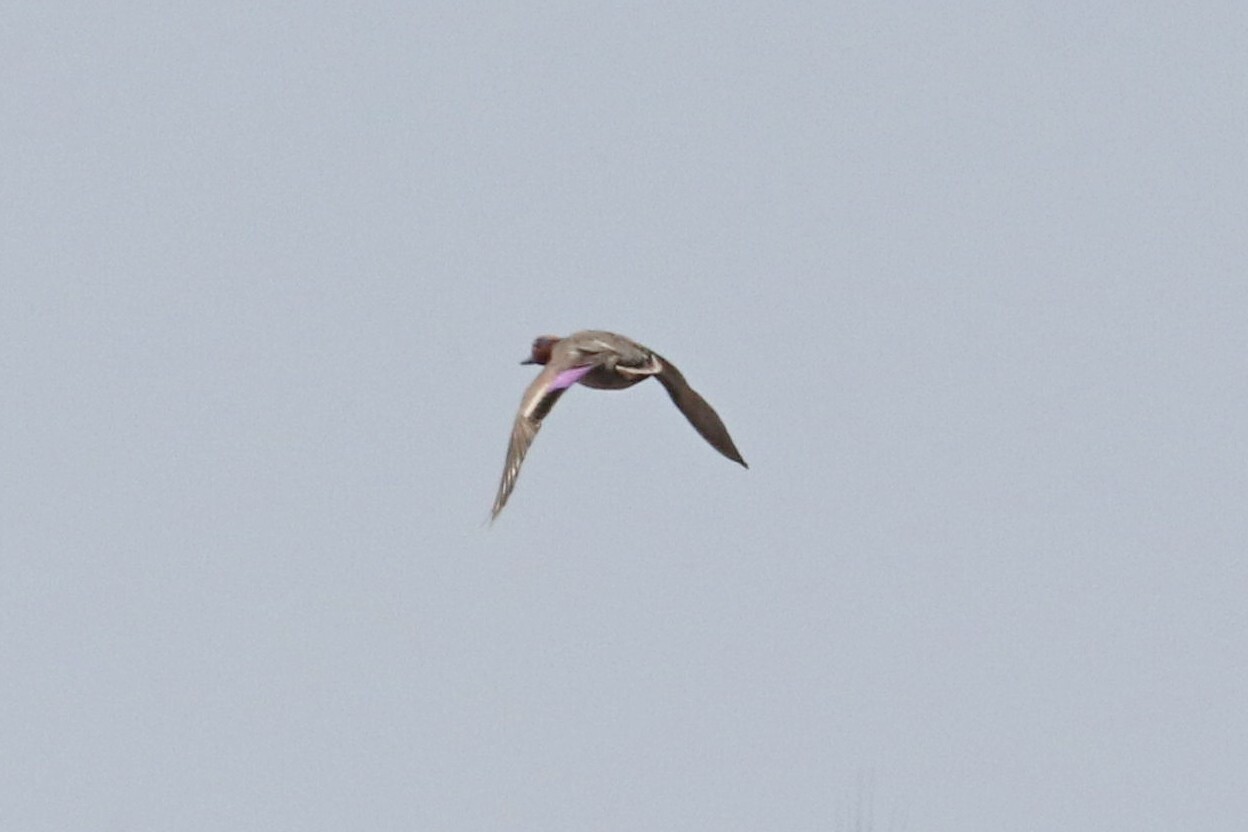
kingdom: Animalia
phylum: Chordata
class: Aves
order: Anseriformes
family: Anatidae
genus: Anas
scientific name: Anas crecca
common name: Eurasian teal
